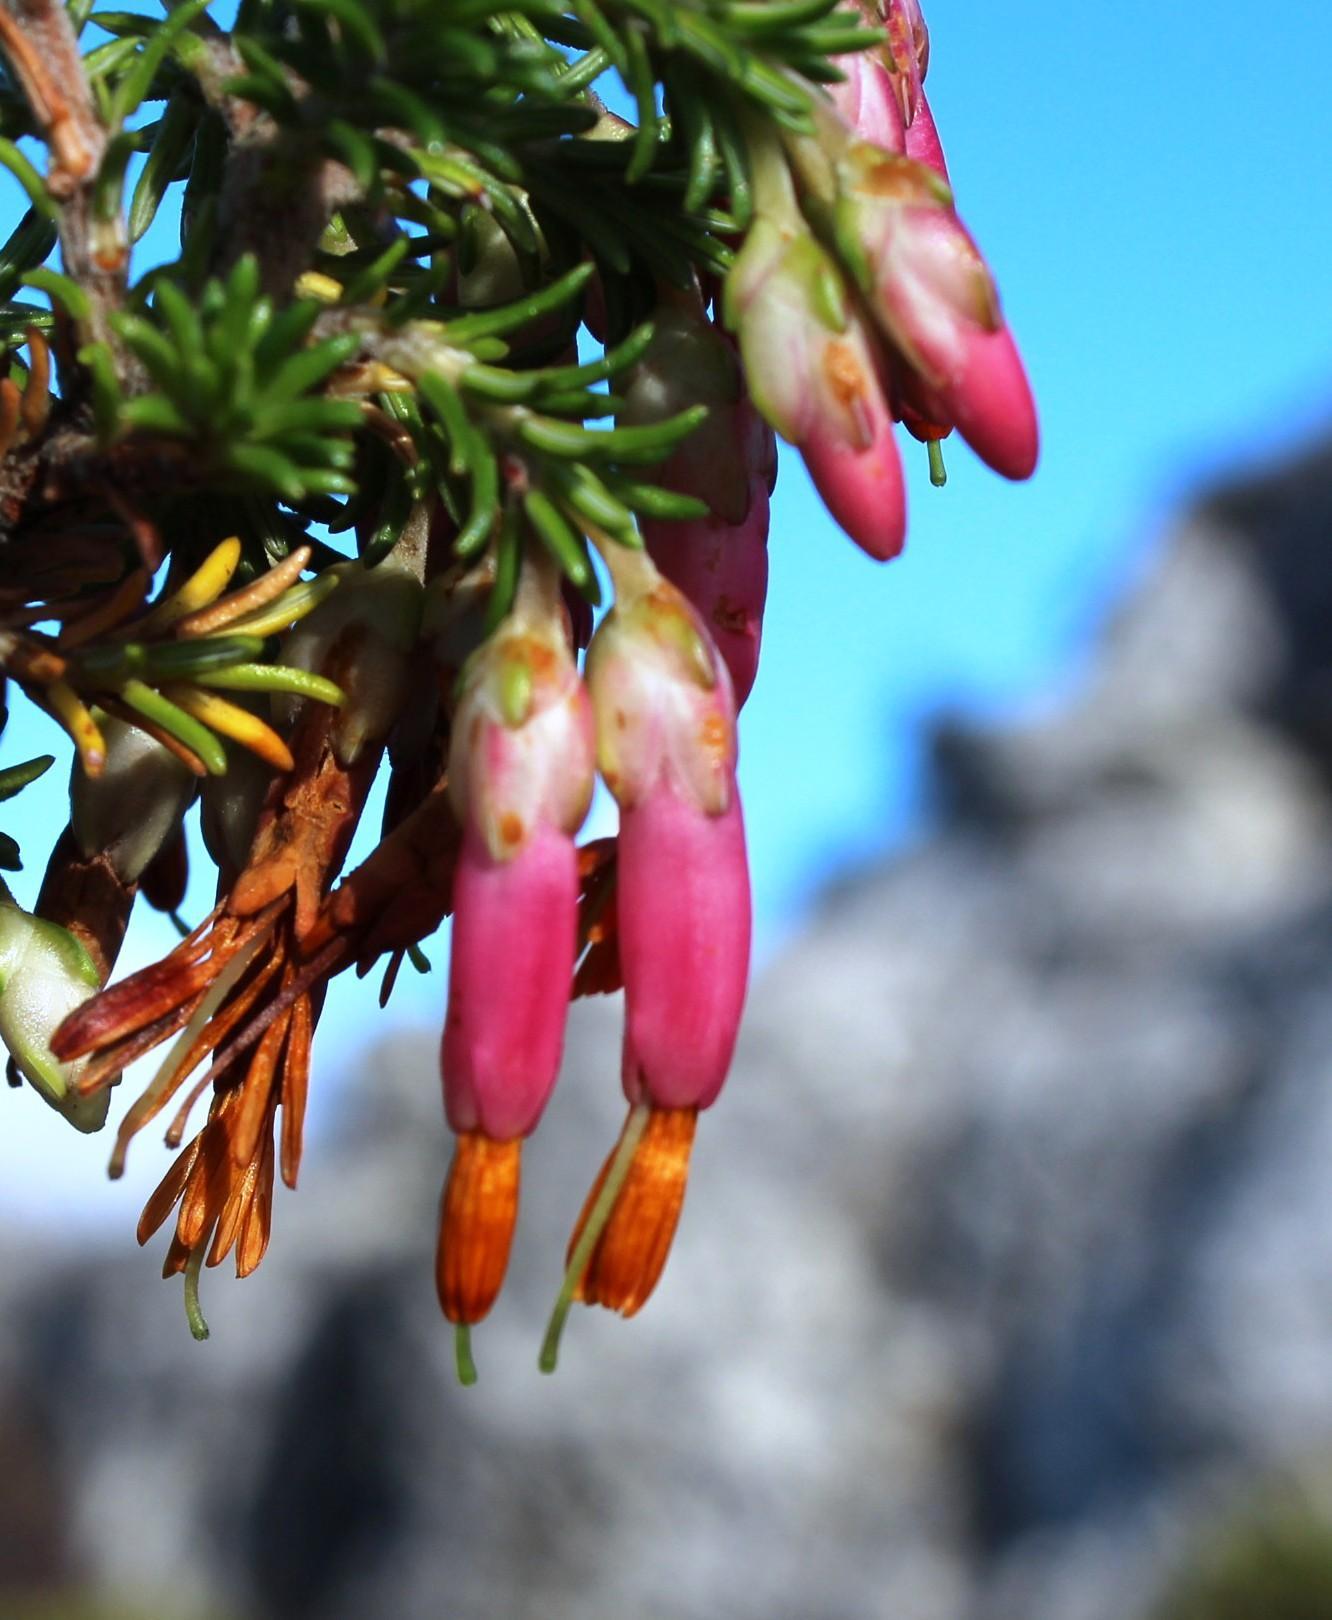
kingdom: Plantae
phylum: Tracheophyta
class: Magnoliopsida
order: Ericales
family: Ericaceae
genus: Erica
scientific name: Erica coccinea
